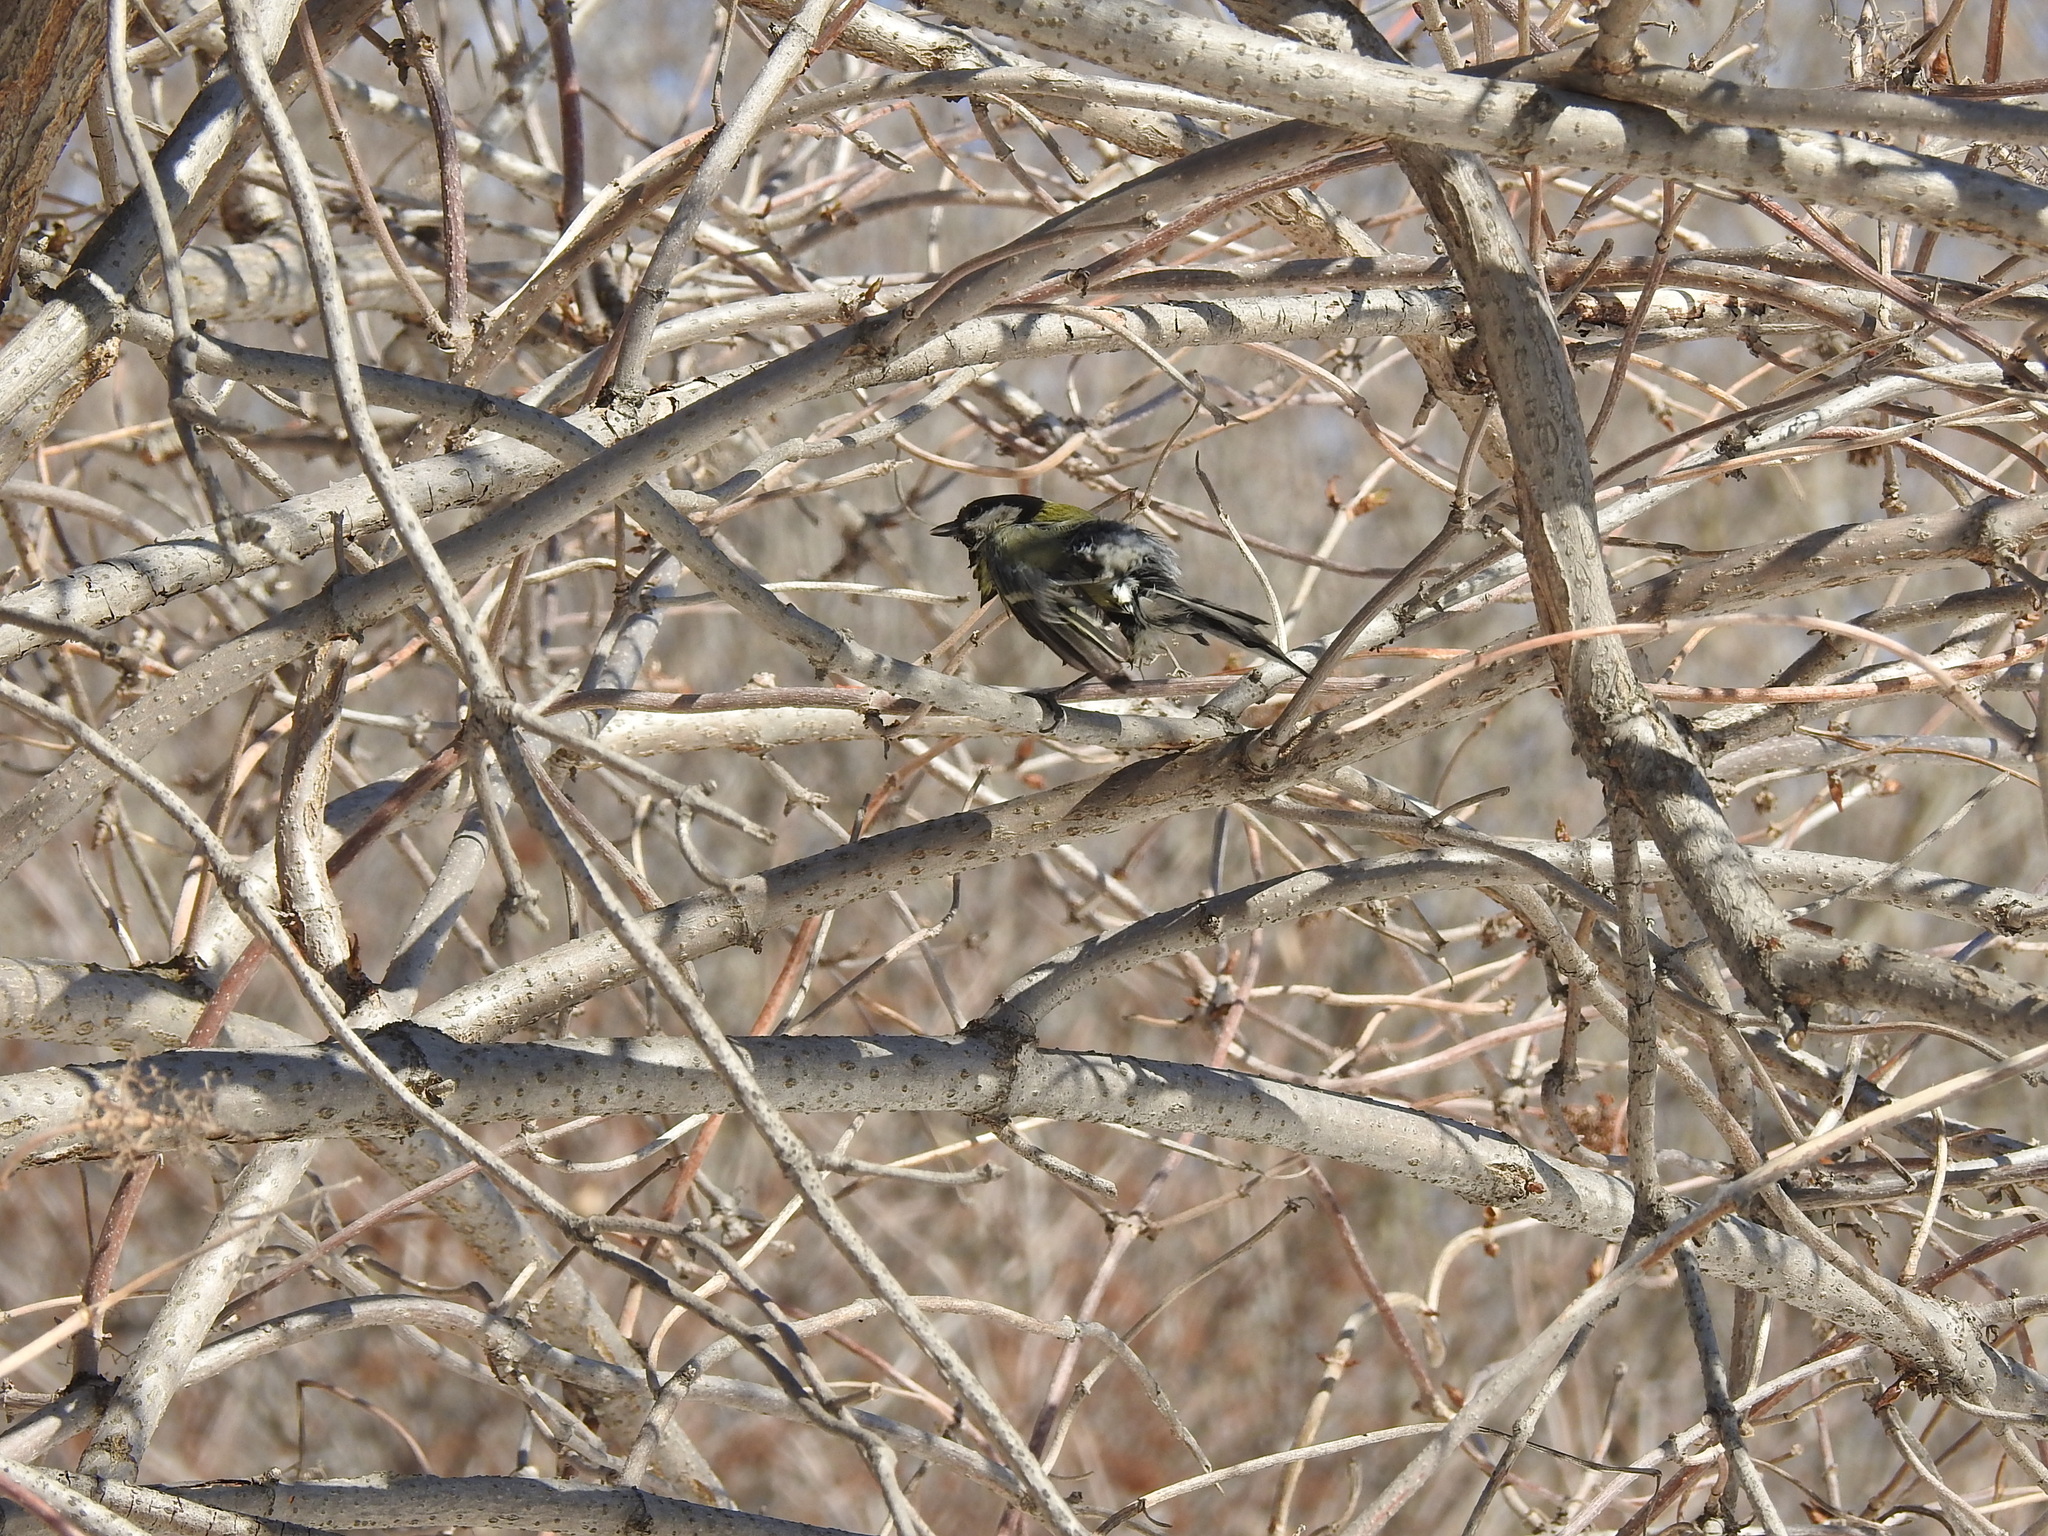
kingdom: Animalia
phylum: Chordata
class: Aves
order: Passeriformes
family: Paridae
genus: Parus
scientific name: Parus major
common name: Great tit
